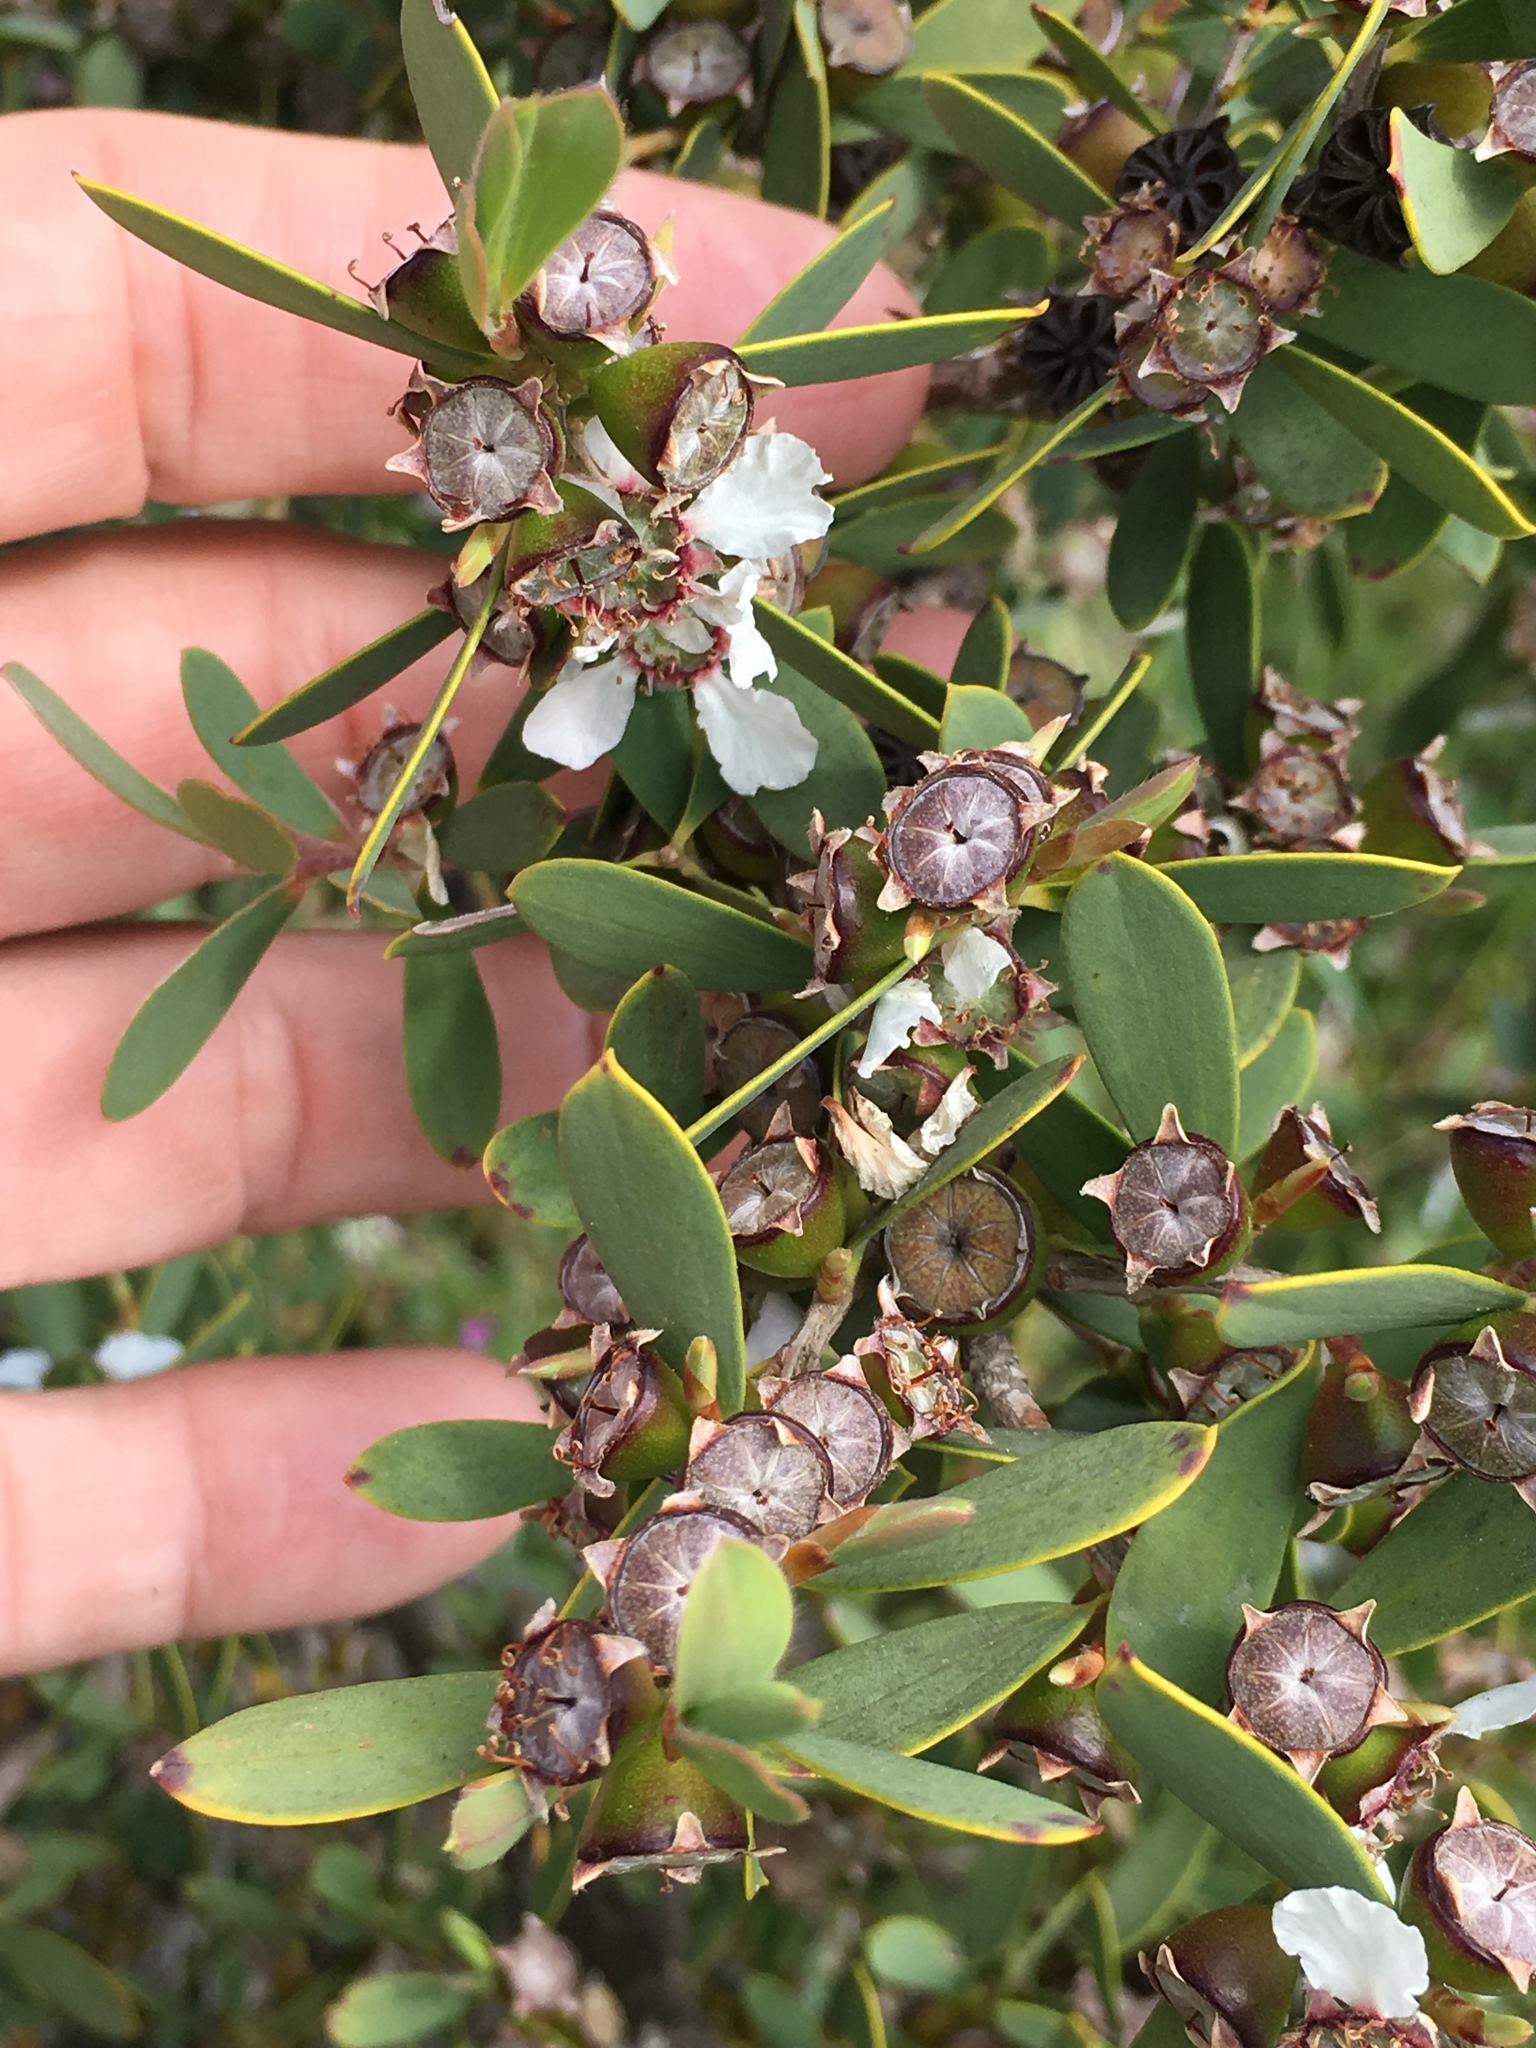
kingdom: Plantae
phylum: Tracheophyta
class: Magnoliopsida
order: Myrtales
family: Myrtaceae
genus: Leptospermum
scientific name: Leptospermum laevigatum
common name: Australian teatree
